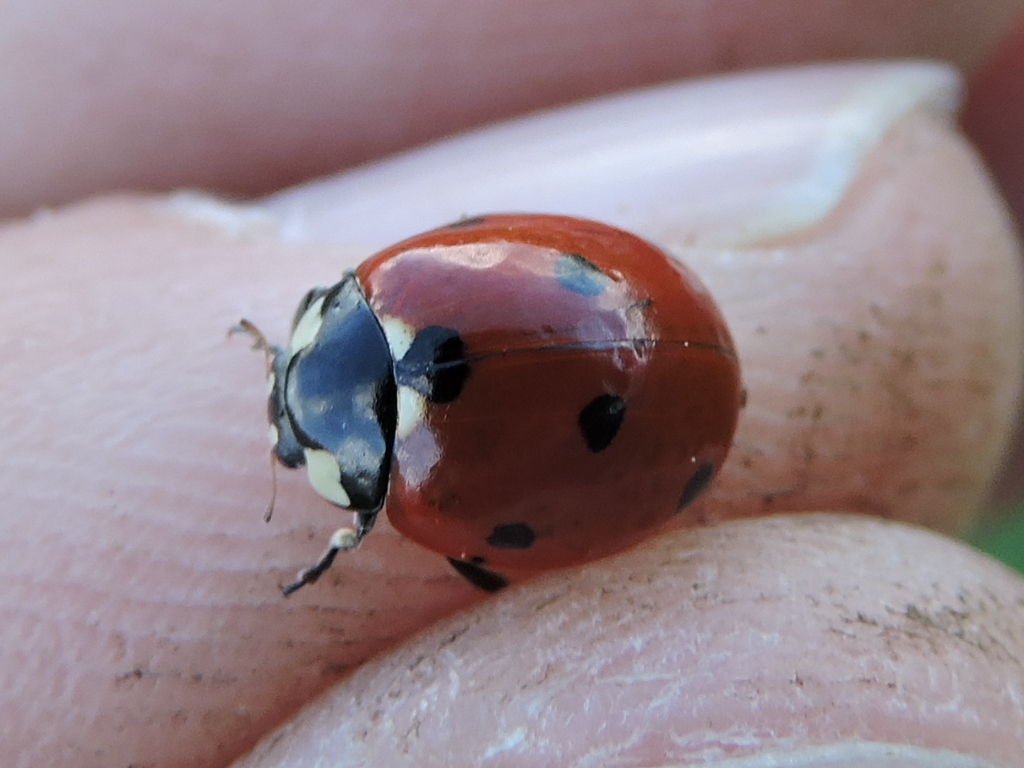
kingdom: Animalia
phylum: Arthropoda
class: Insecta
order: Coleoptera
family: Coccinellidae
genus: Coccinella
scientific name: Coccinella septempunctata
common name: Sevenspotted lady beetle
